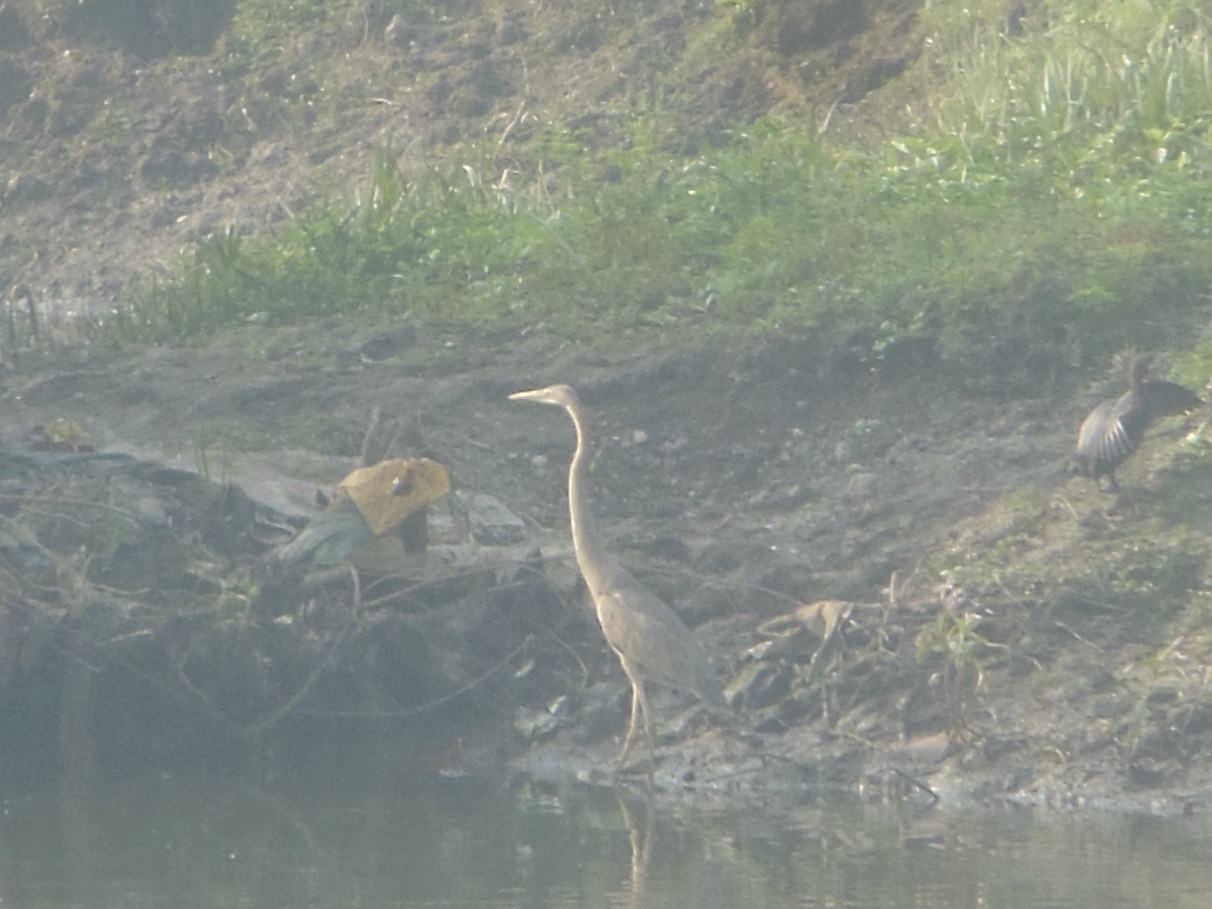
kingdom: Animalia
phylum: Chordata
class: Aves
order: Pelecaniformes
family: Ardeidae
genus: Ardea
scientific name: Ardea purpurea
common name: Purple heron
